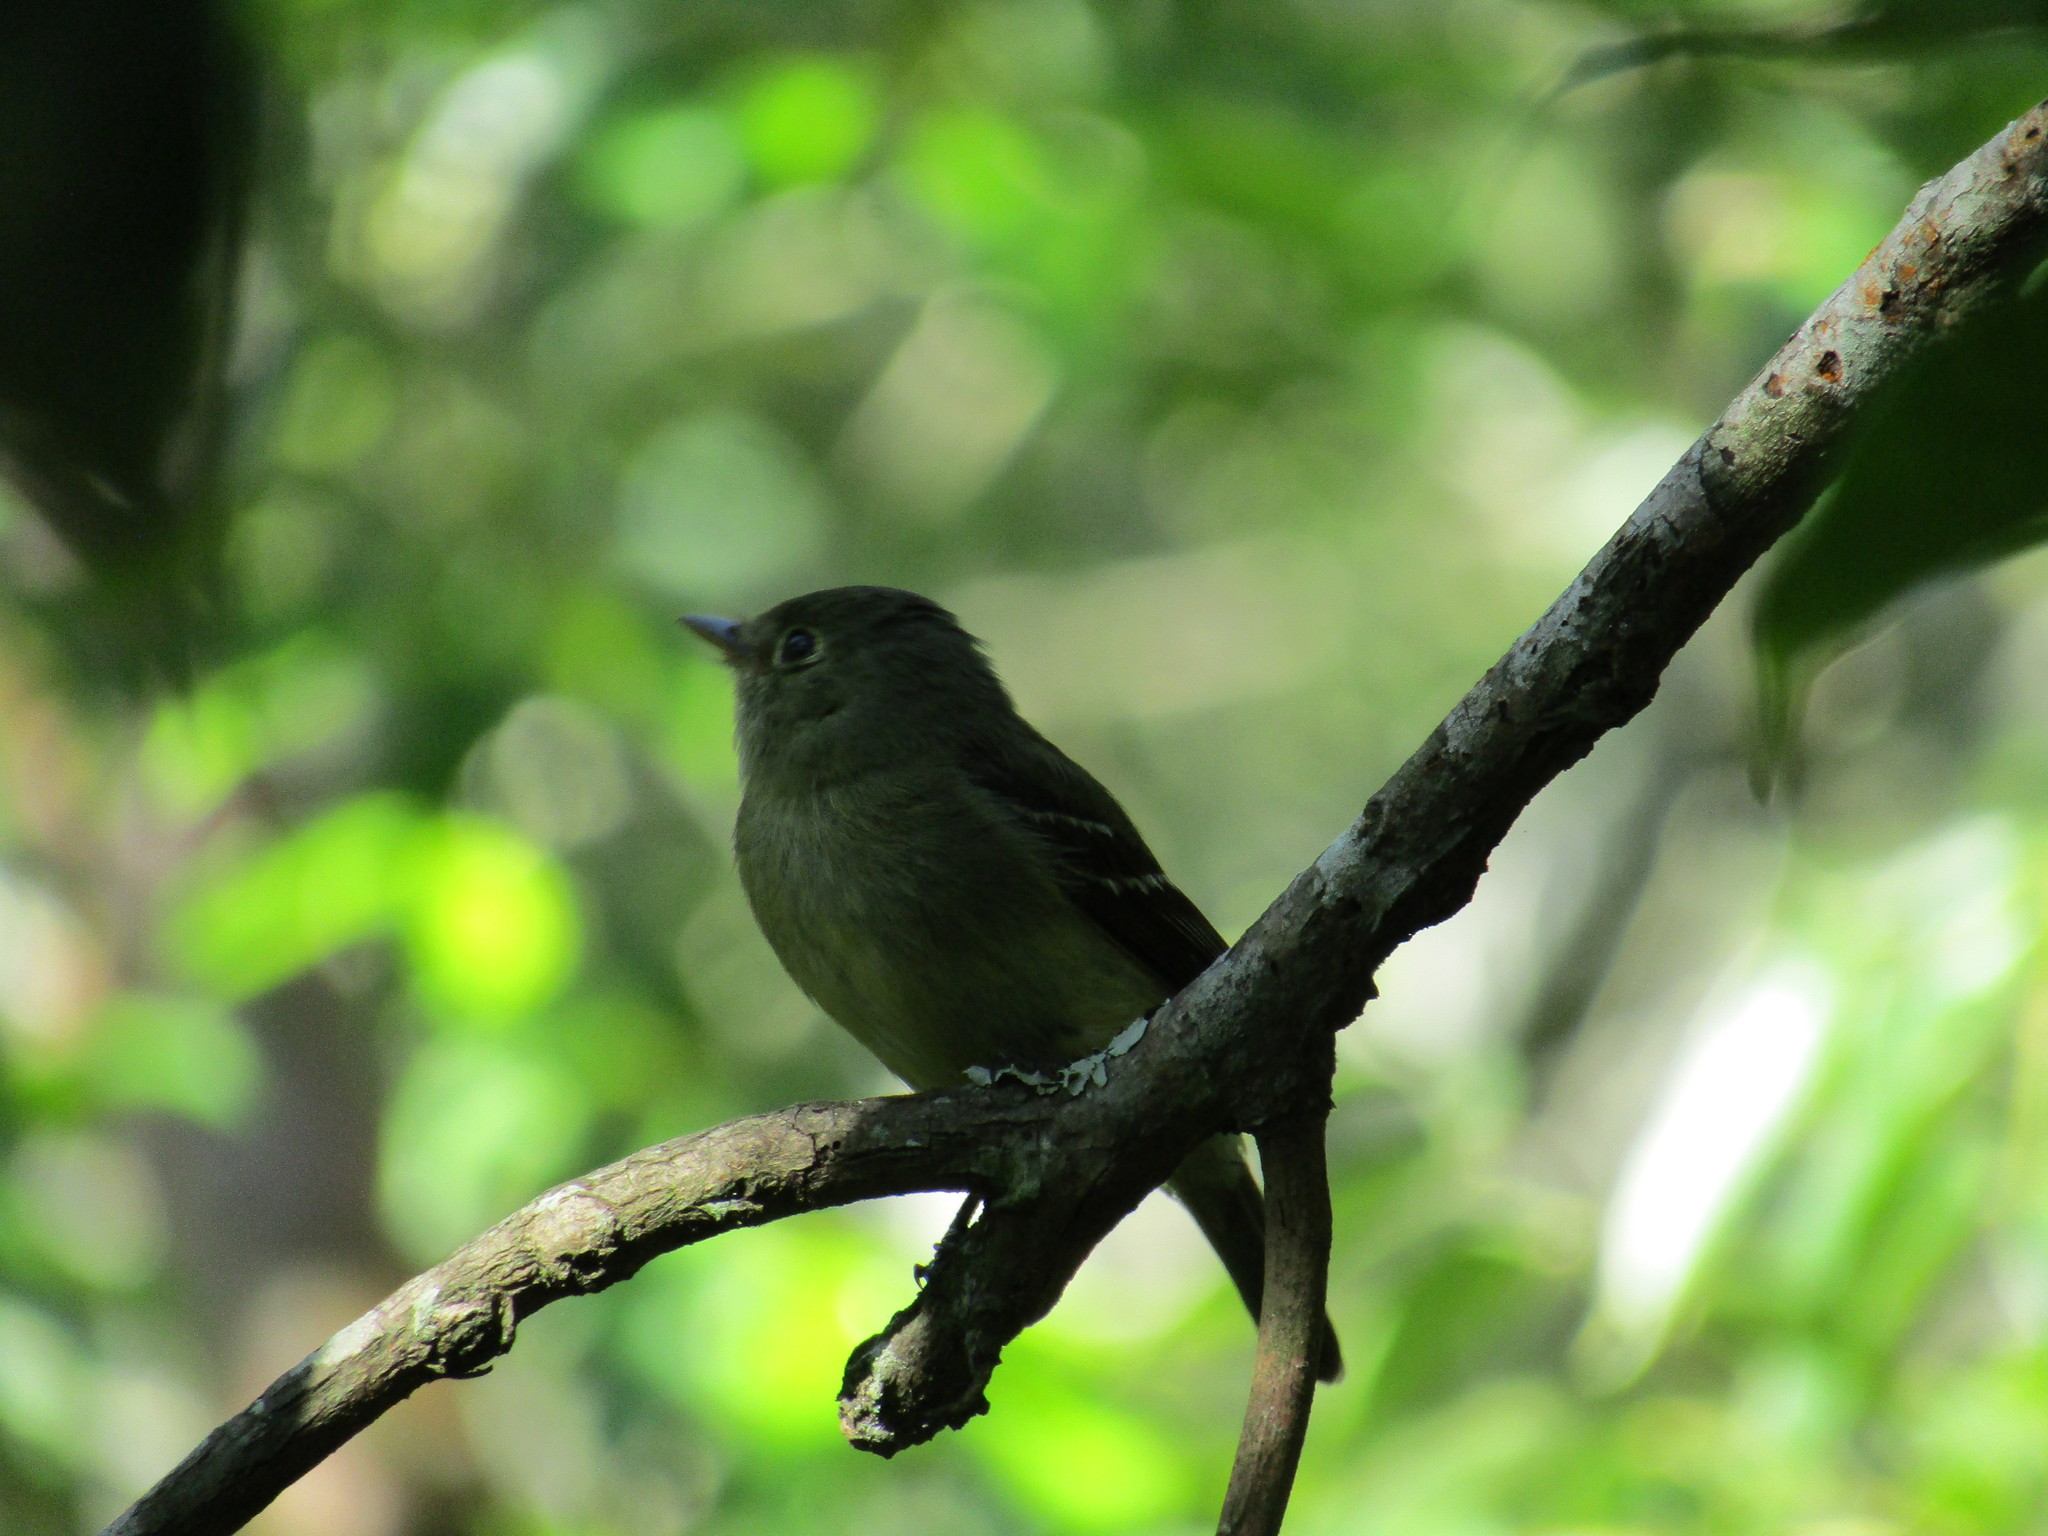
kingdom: Animalia
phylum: Chordata
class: Aves
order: Passeriformes
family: Tyrannidae
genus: Empidonax
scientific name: Empidonax flaviventris
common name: Yellow-bellied flycatcher
